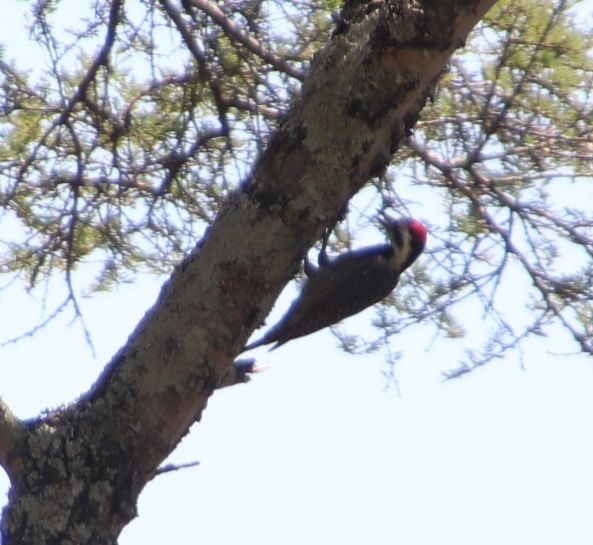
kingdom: Animalia
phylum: Chordata
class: Aves
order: Piciformes
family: Picidae
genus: Chloropicus
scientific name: Chloropicus namaquus
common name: Bearded woodpecker
